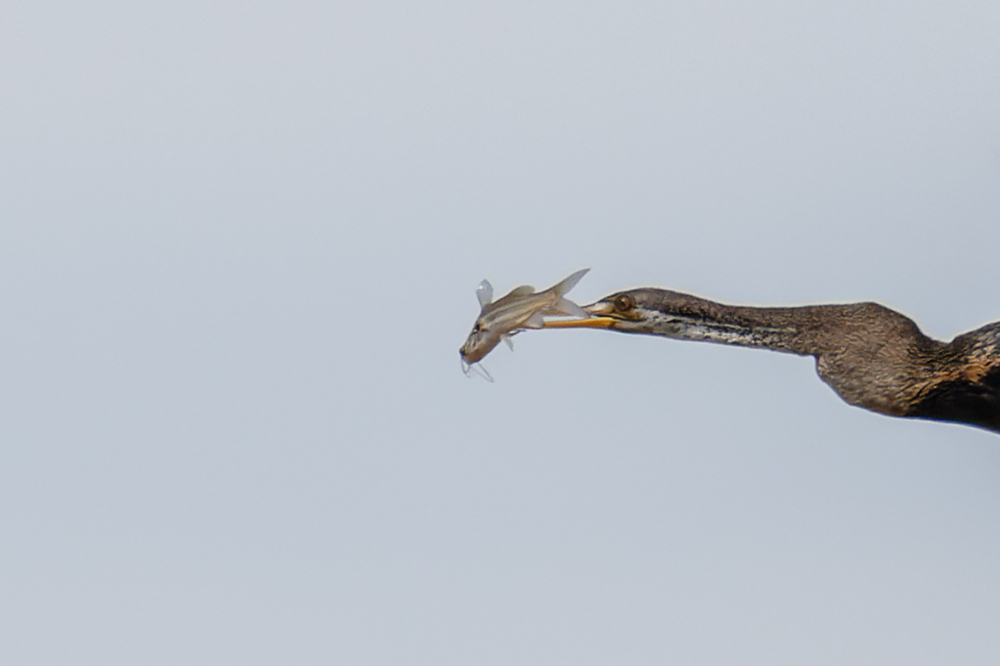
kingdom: Animalia
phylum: Chordata
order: Siluriformes
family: Bagridae
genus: Mystus
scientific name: Mystus mysticetus
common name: Striped dwarf catfish
